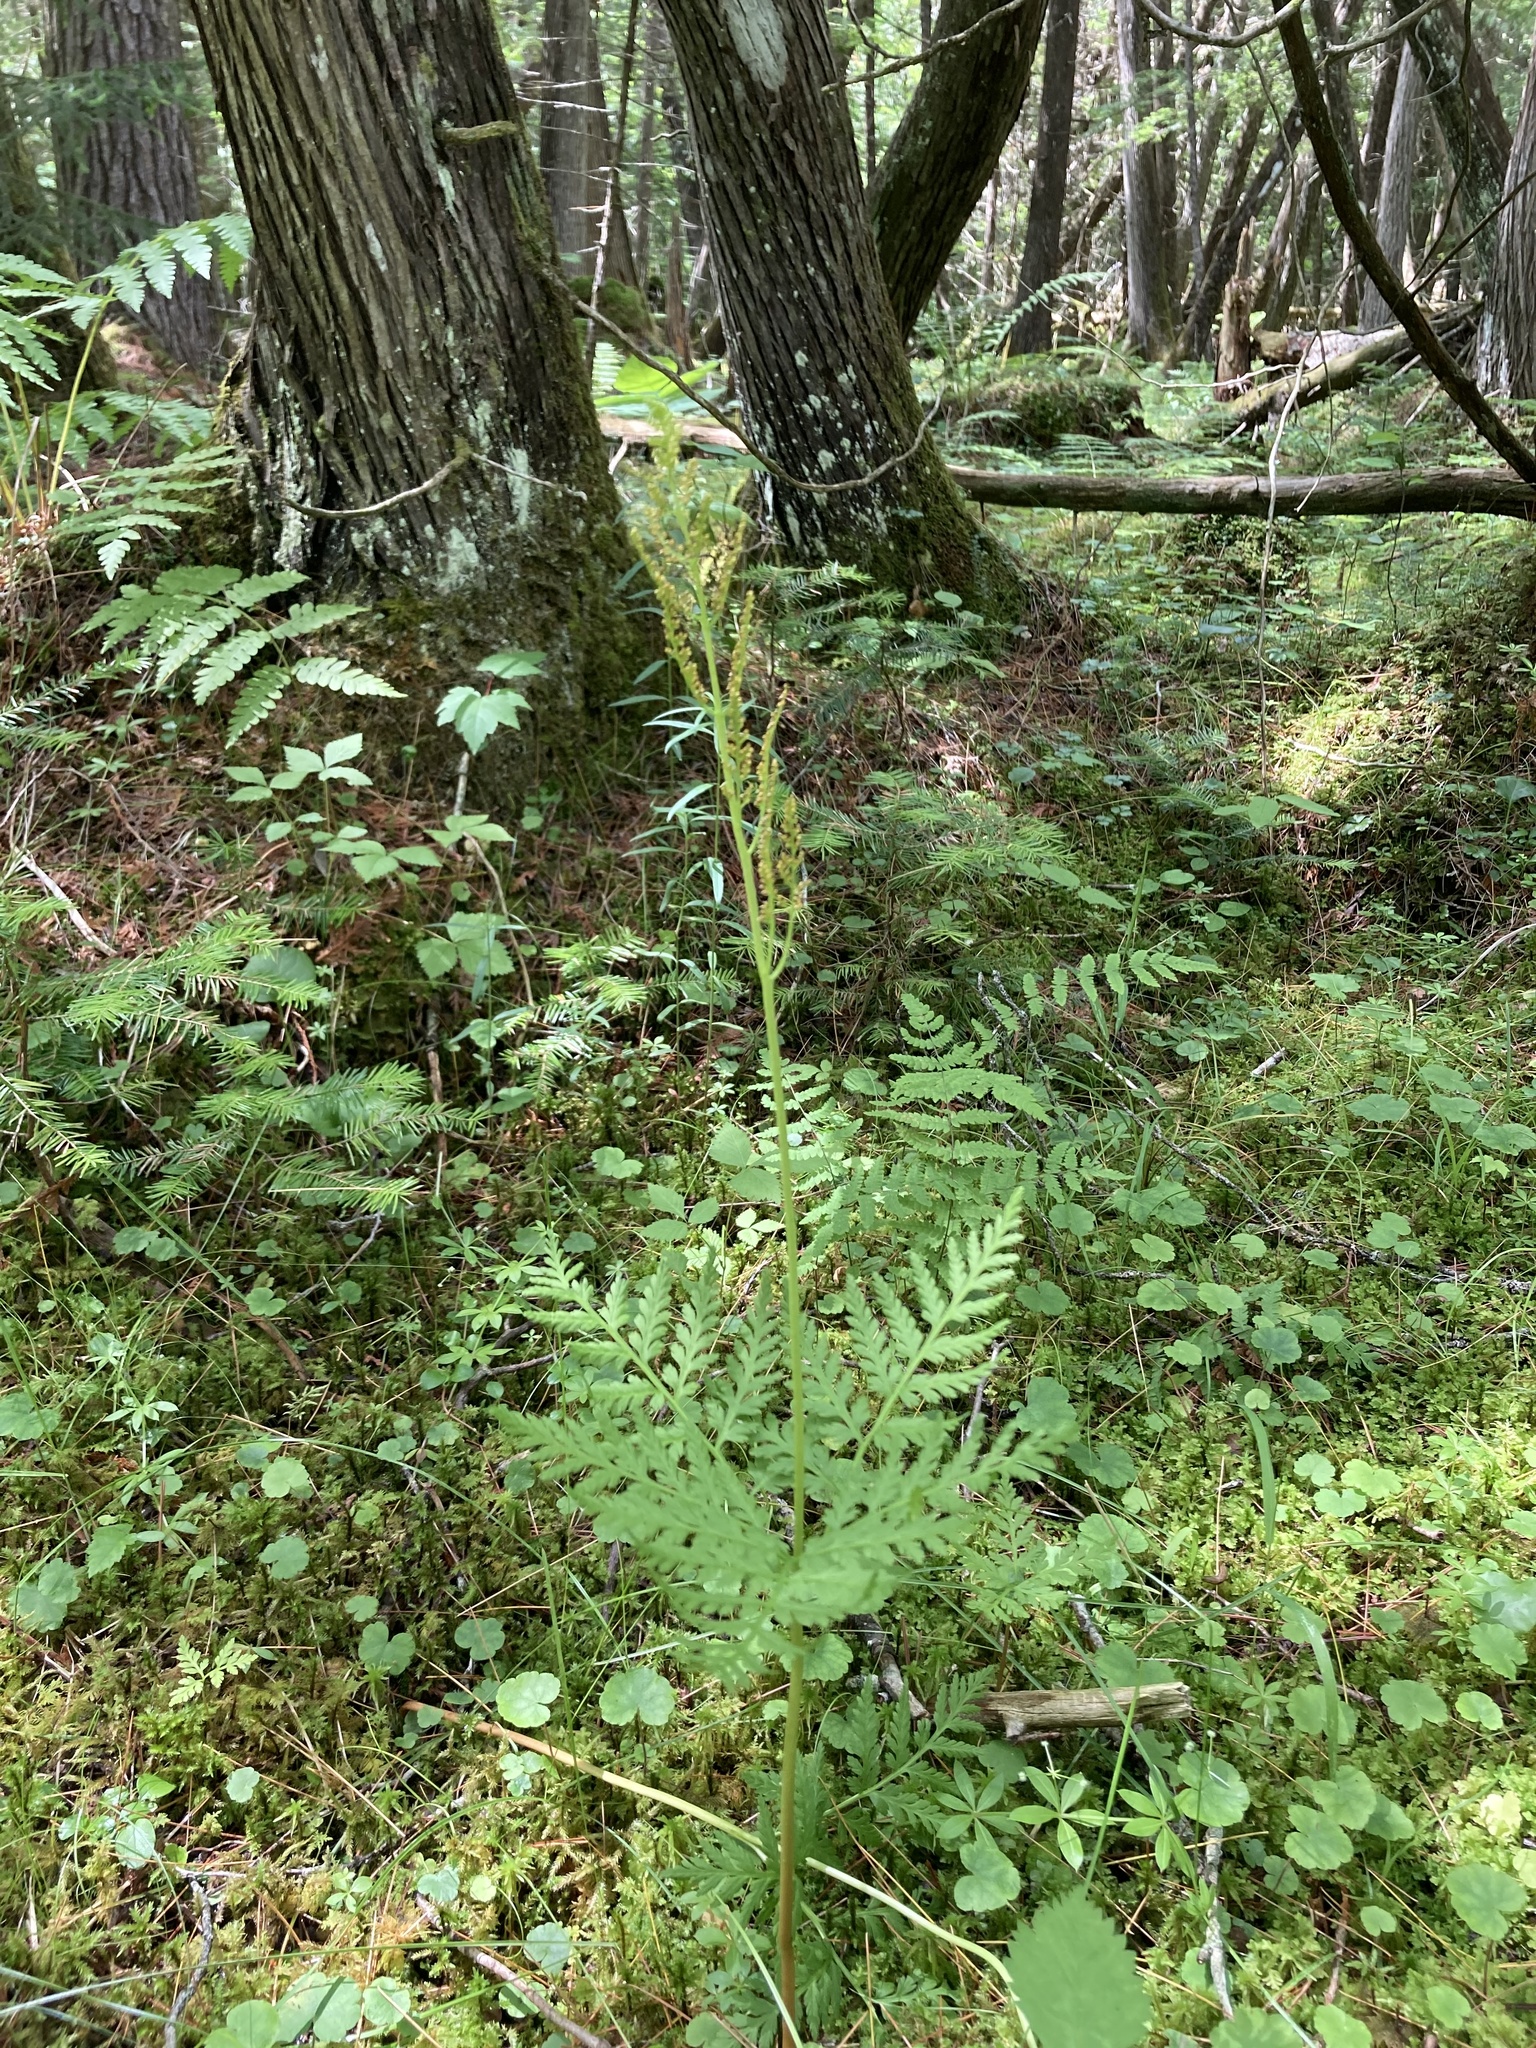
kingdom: Plantae
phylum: Tracheophyta
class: Polypodiopsida
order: Ophioglossales
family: Ophioglossaceae
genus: Botrypus
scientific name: Botrypus virginianus
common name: Common grapefern
